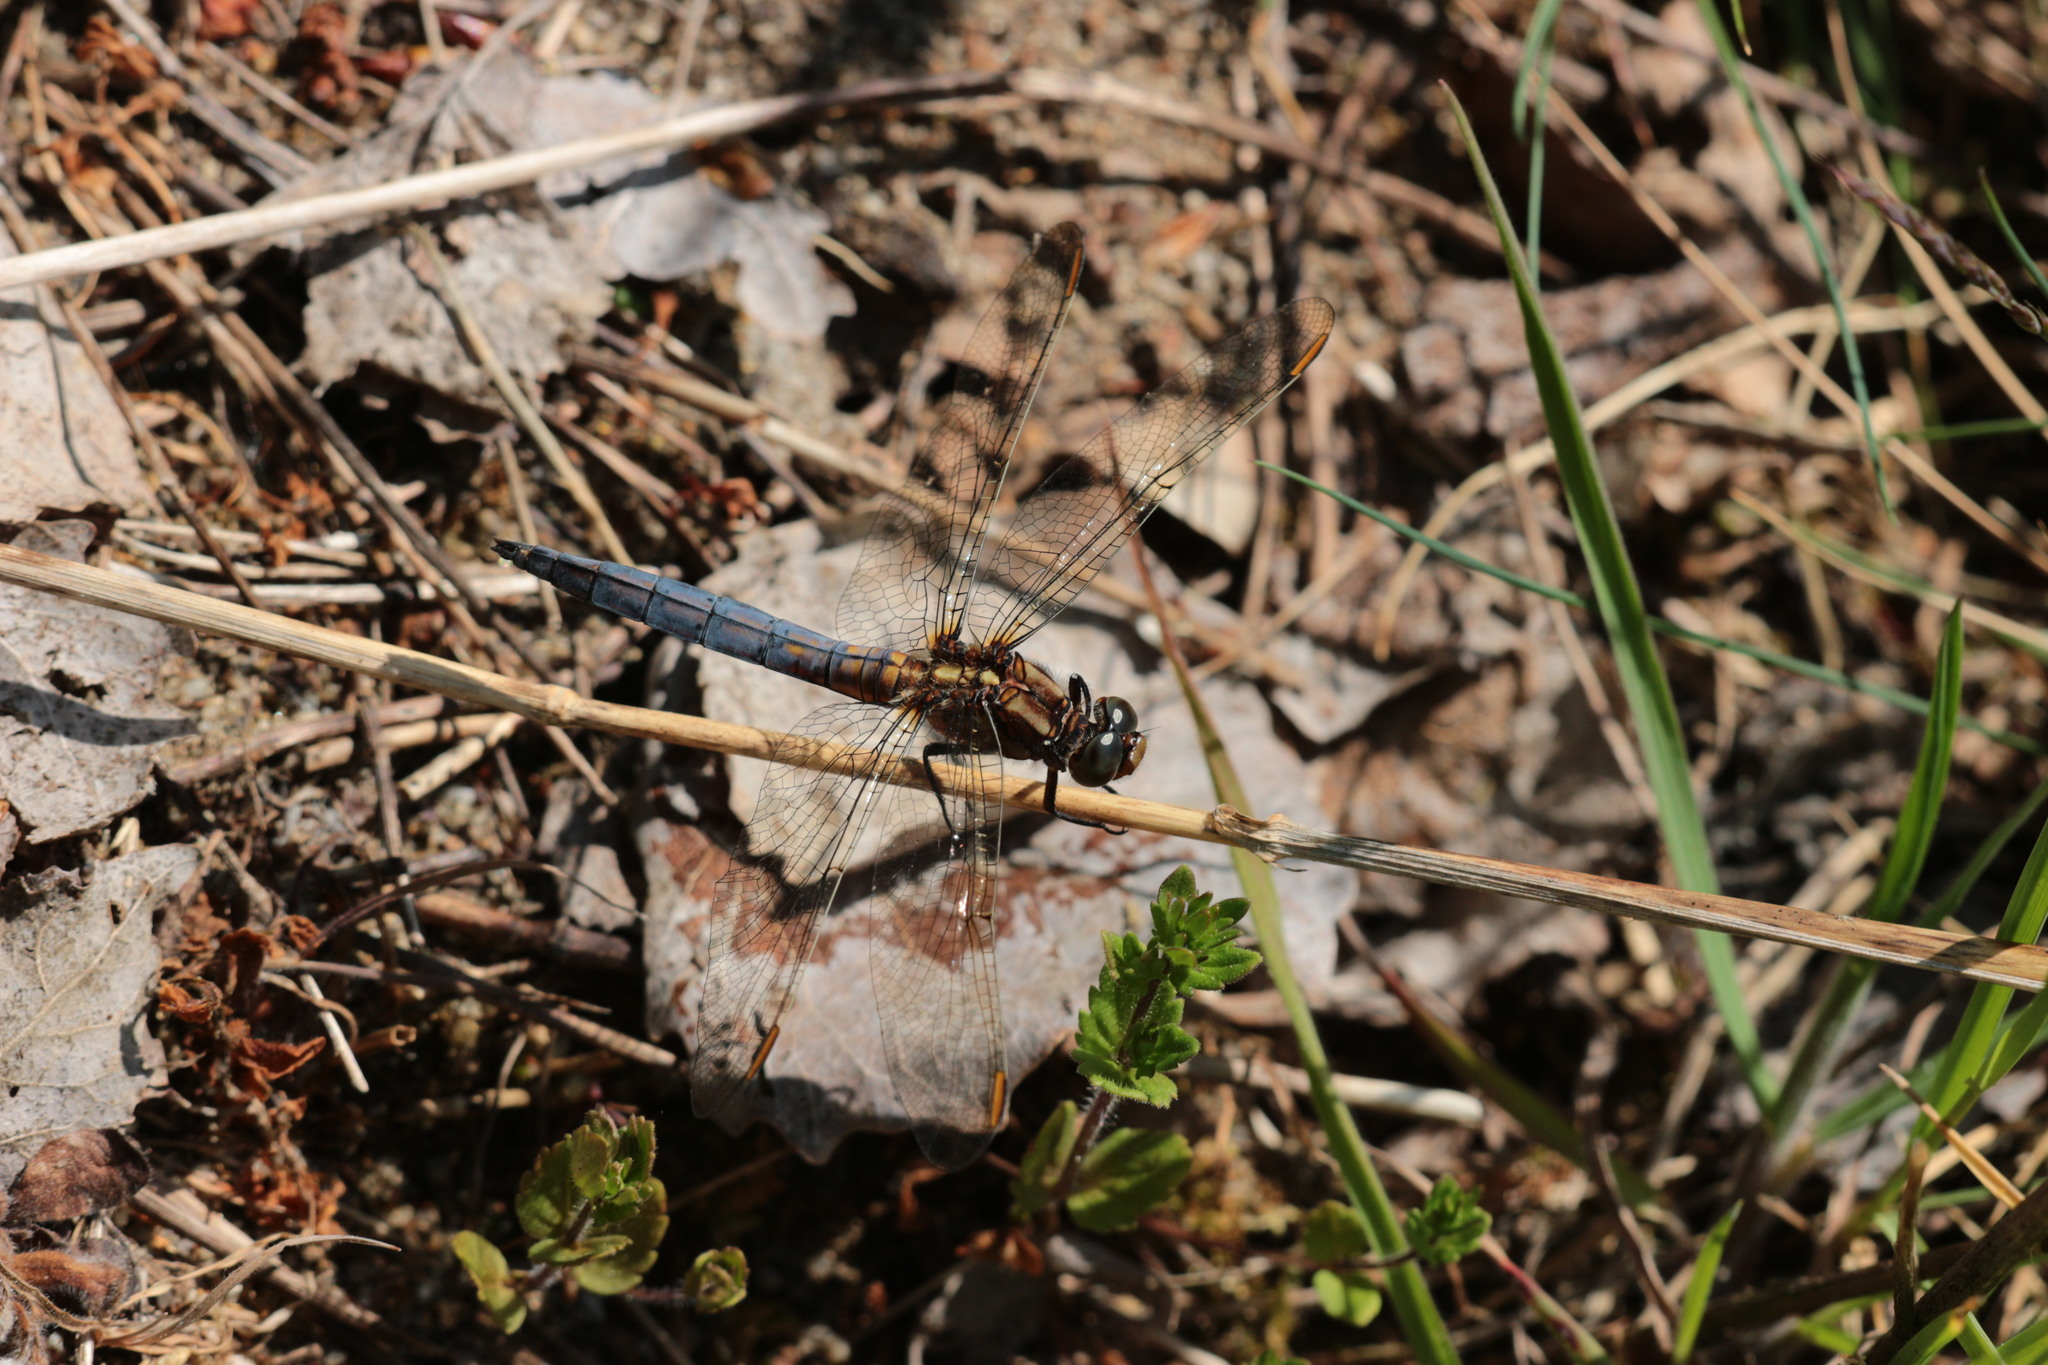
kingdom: Animalia
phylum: Arthropoda
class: Insecta
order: Odonata
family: Libellulidae
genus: Orthetrum
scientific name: Orthetrum coerulescens
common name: Keeled skimmer
